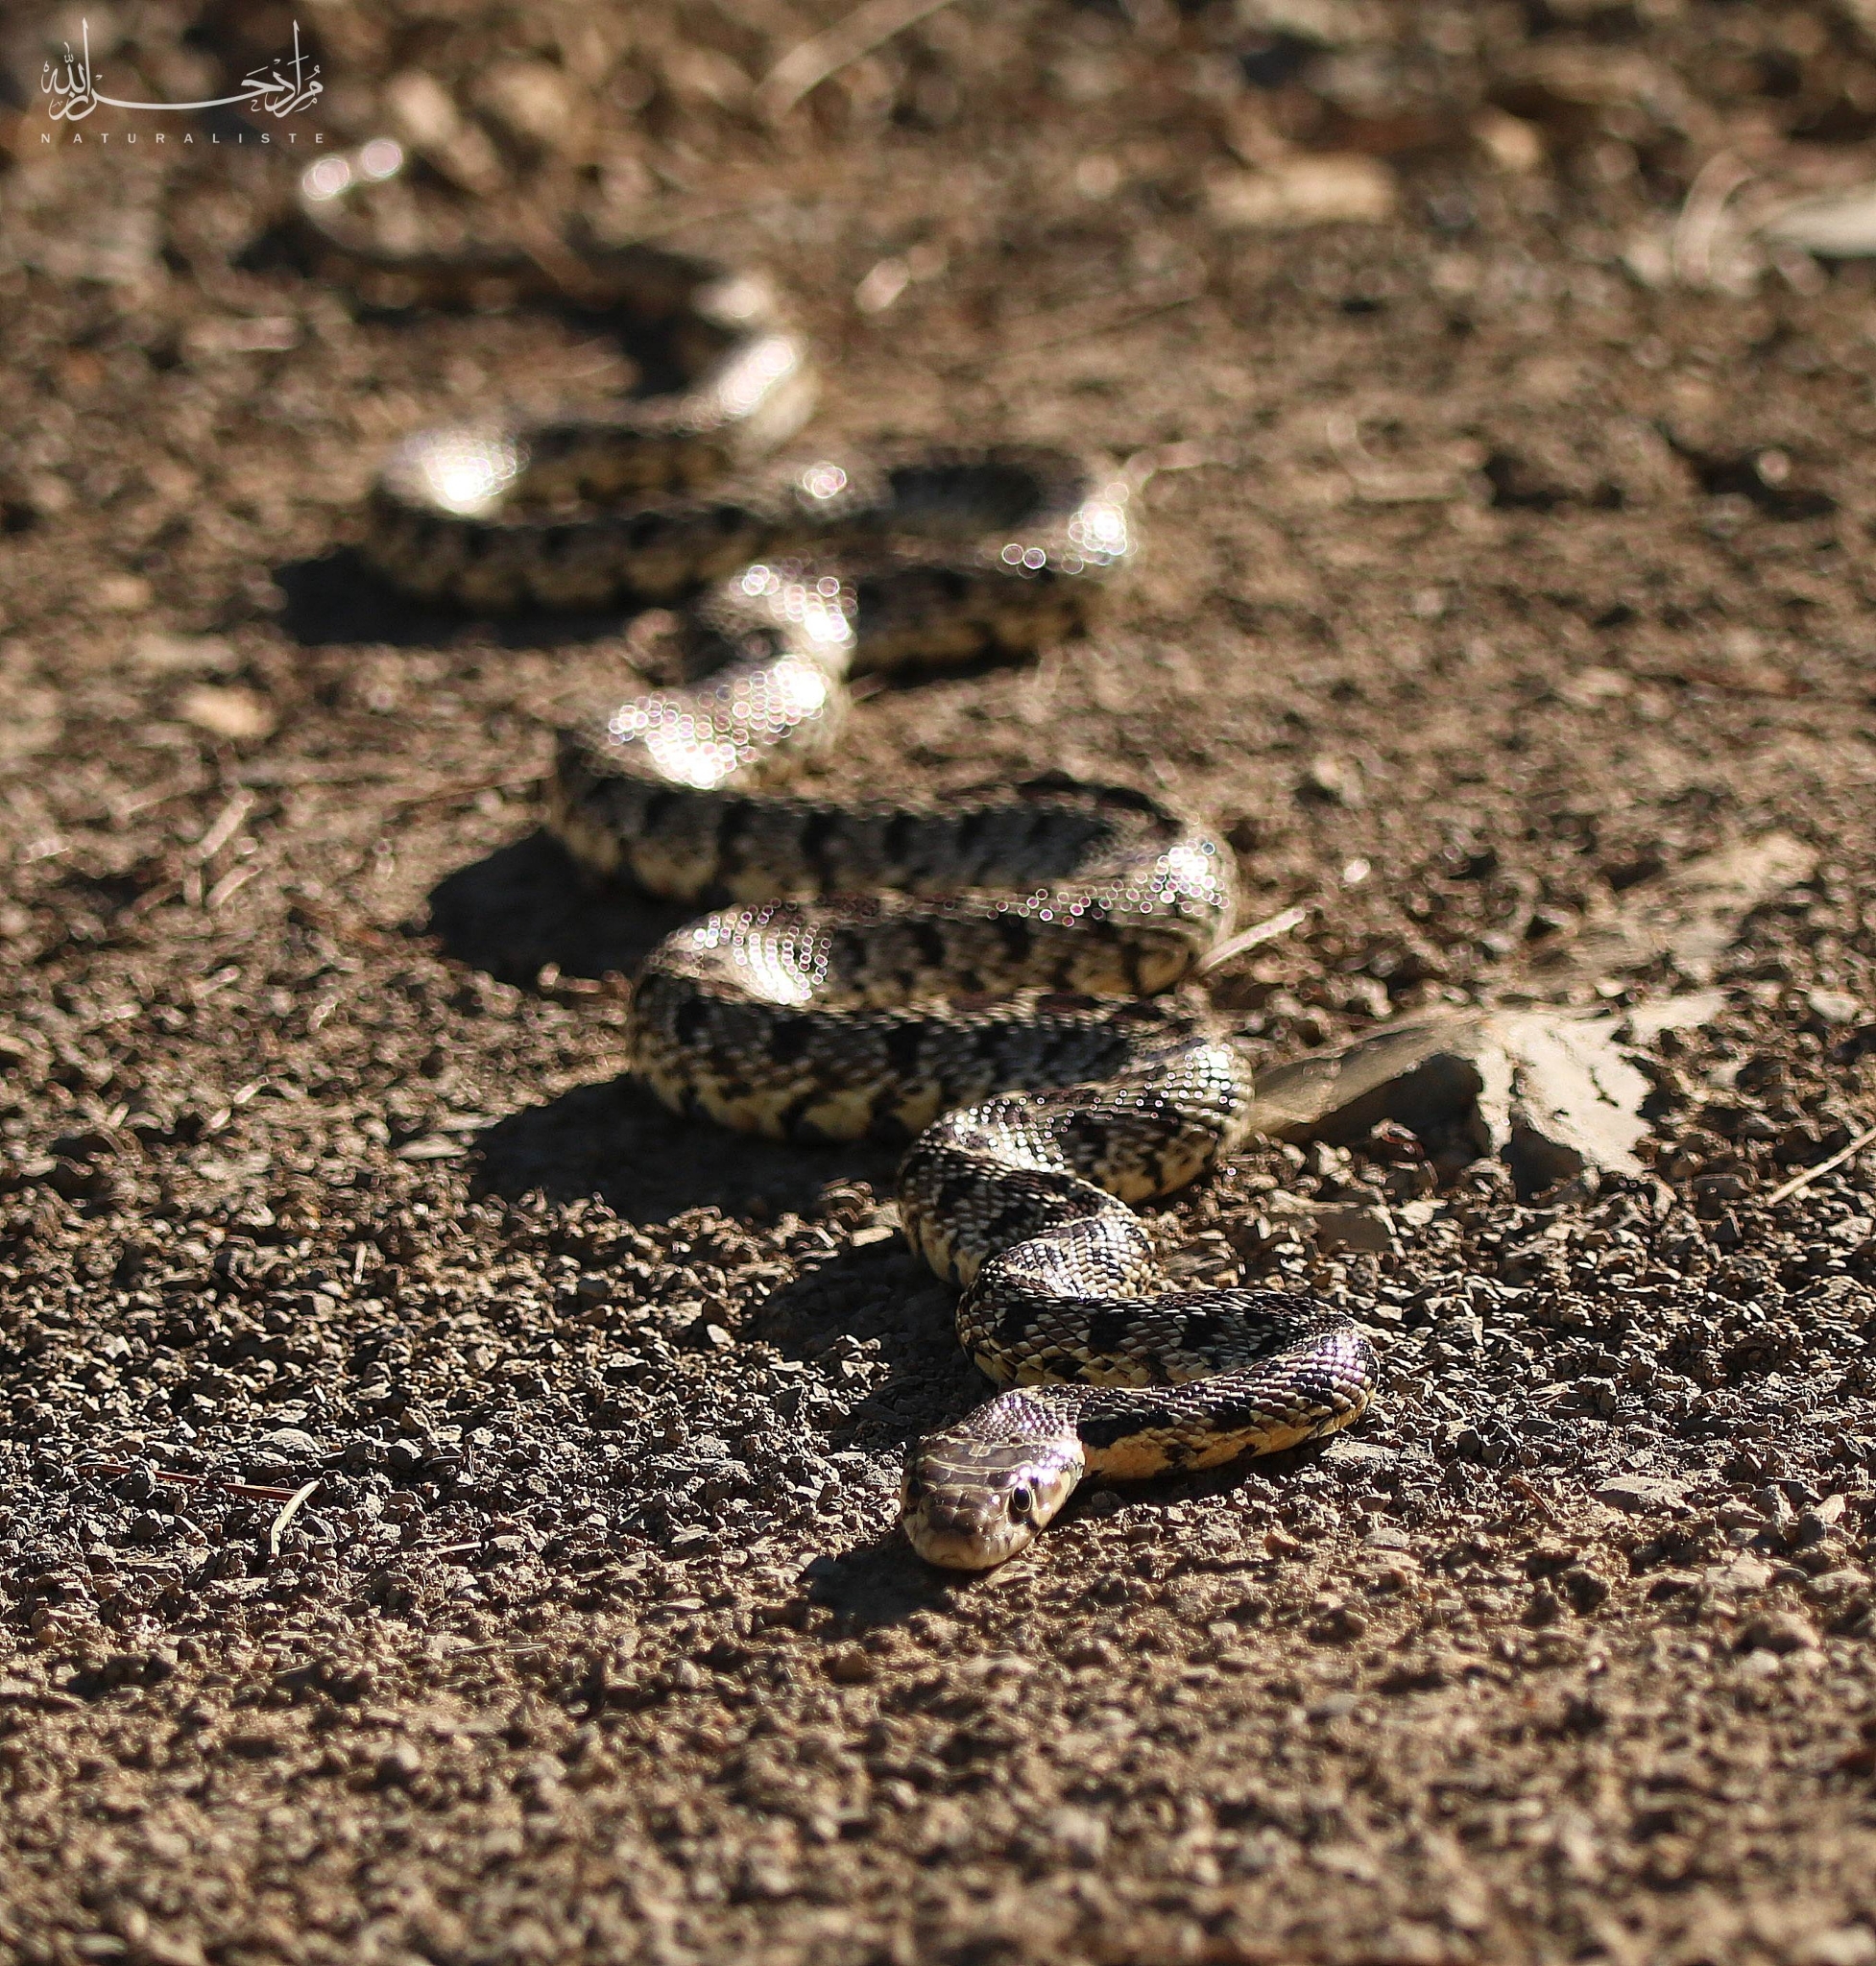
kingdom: Animalia
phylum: Chordata
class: Squamata
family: Colubridae
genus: Hemorrhois
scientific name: Hemorrhois hippocrepis
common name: Horseshoe whip snake
